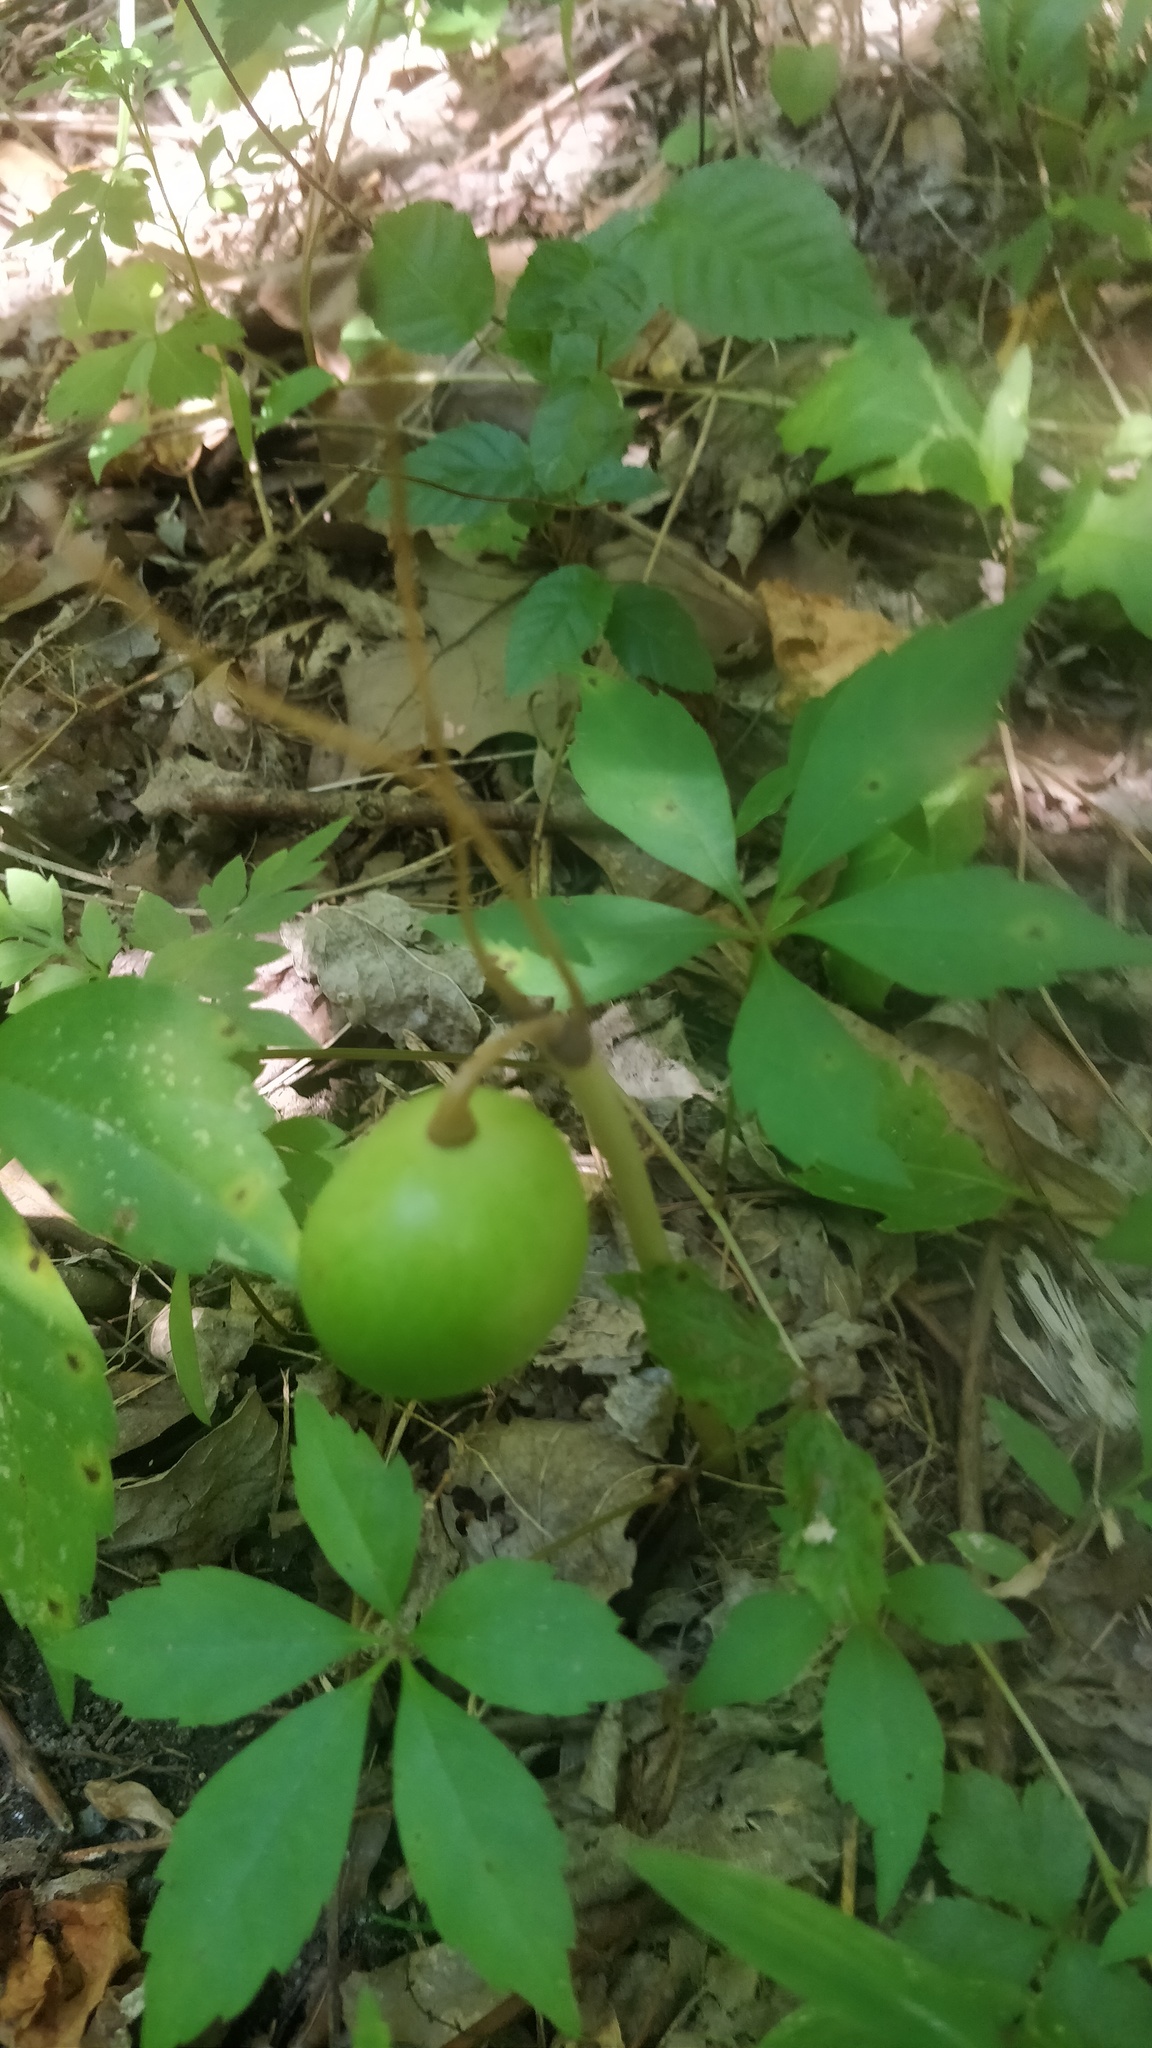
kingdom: Plantae
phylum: Tracheophyta
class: Magnoliopsida
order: Ranunculales
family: Berberidaceae
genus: Podophyllum
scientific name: Podophyllum peltatum
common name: Wild mandrake
